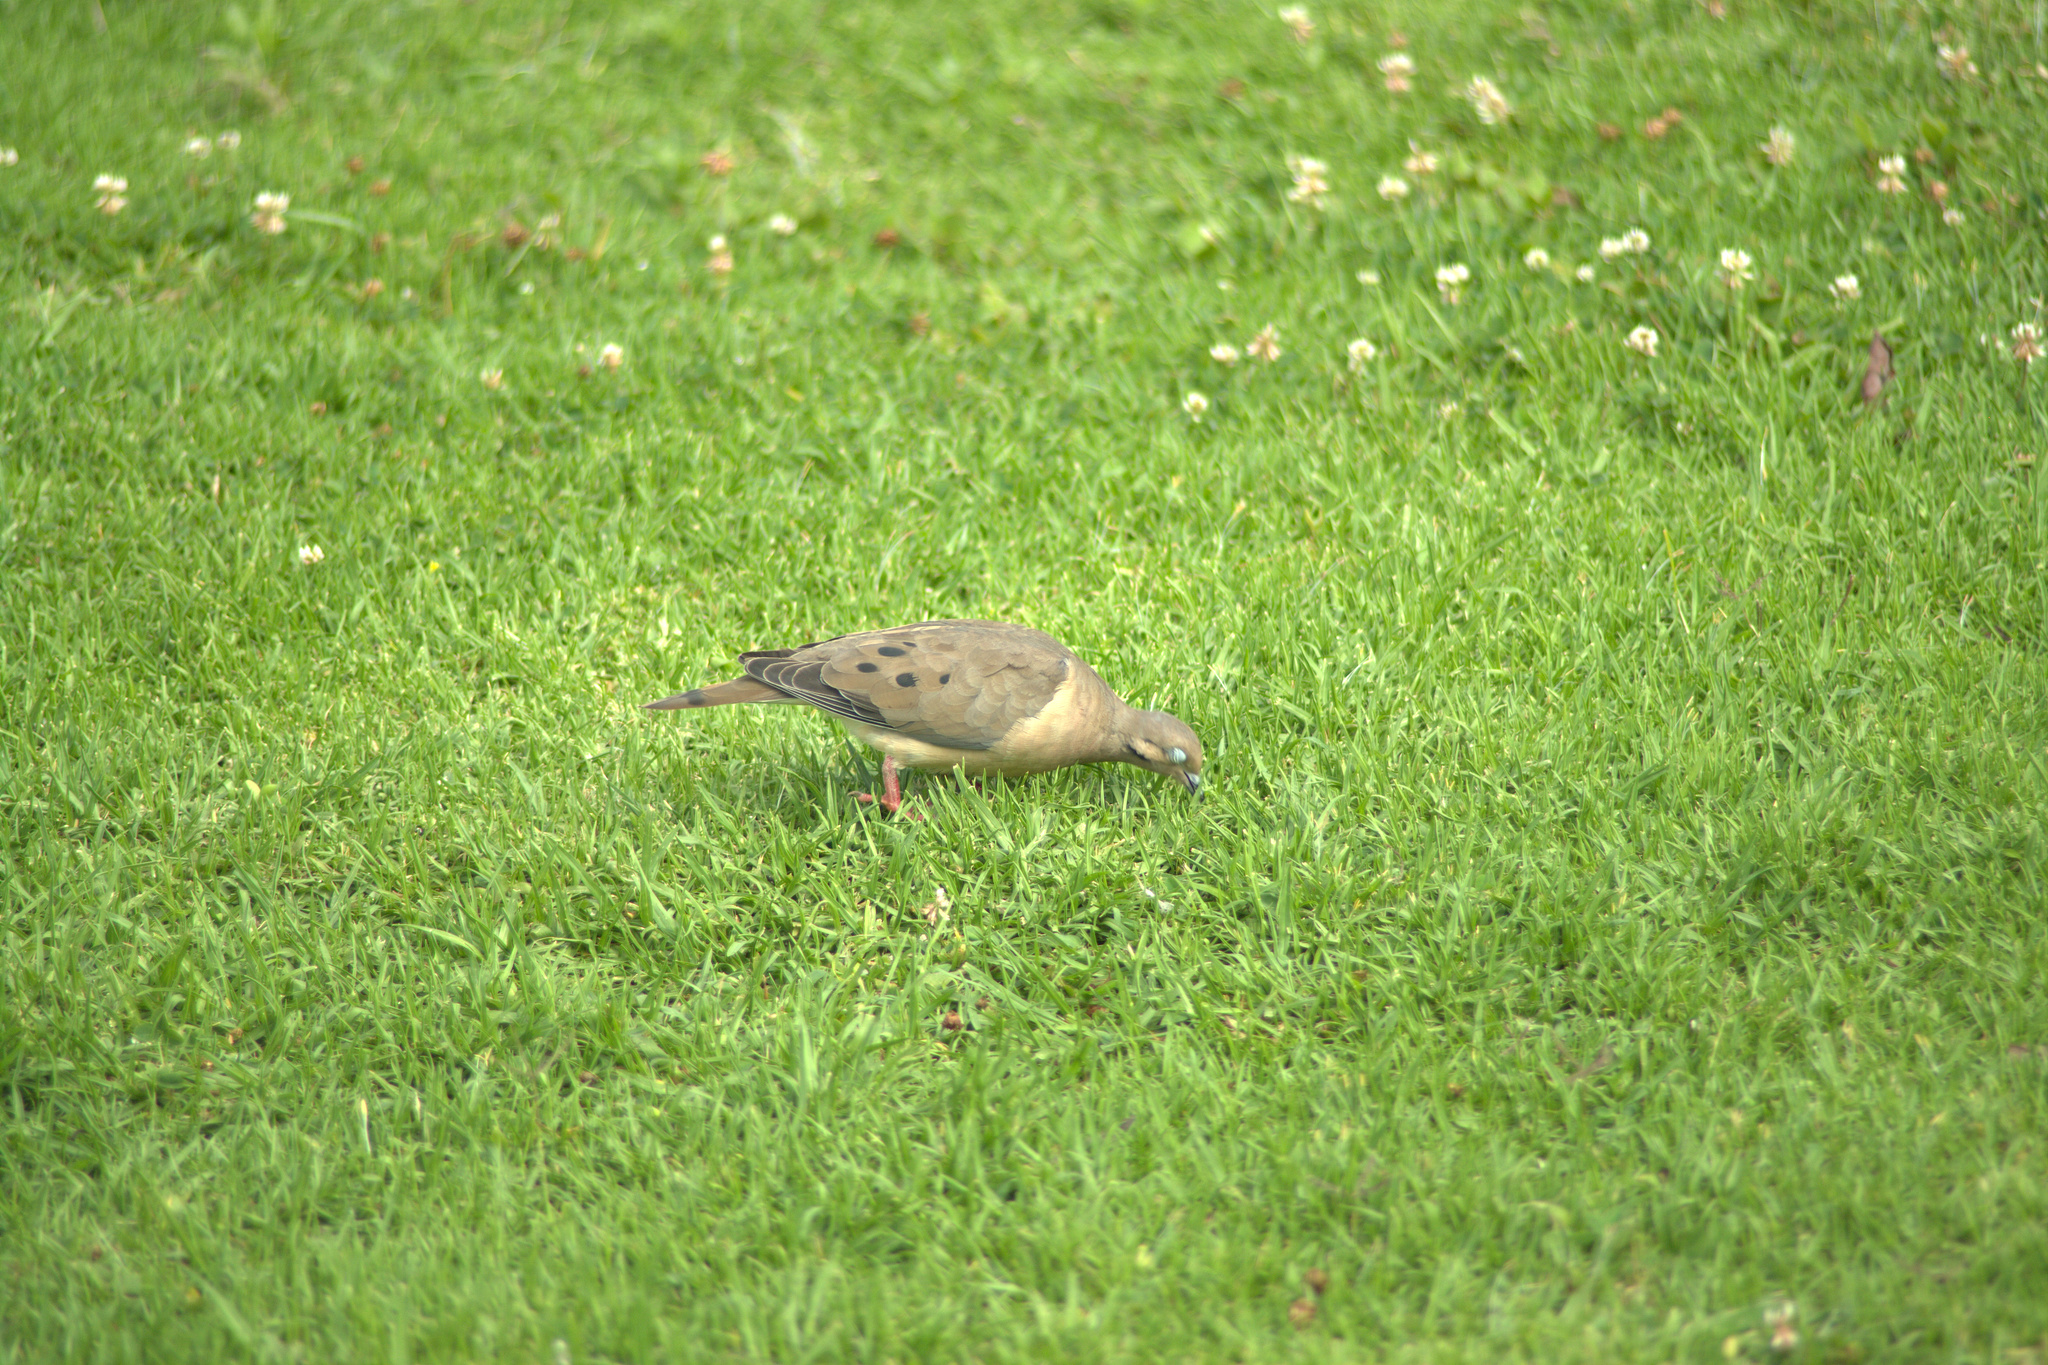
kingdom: Animalia
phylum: Chordata
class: Aves
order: Columbiformes
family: Columbidae
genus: Zenaida
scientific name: Zenaida auriculata
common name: Eared dove
